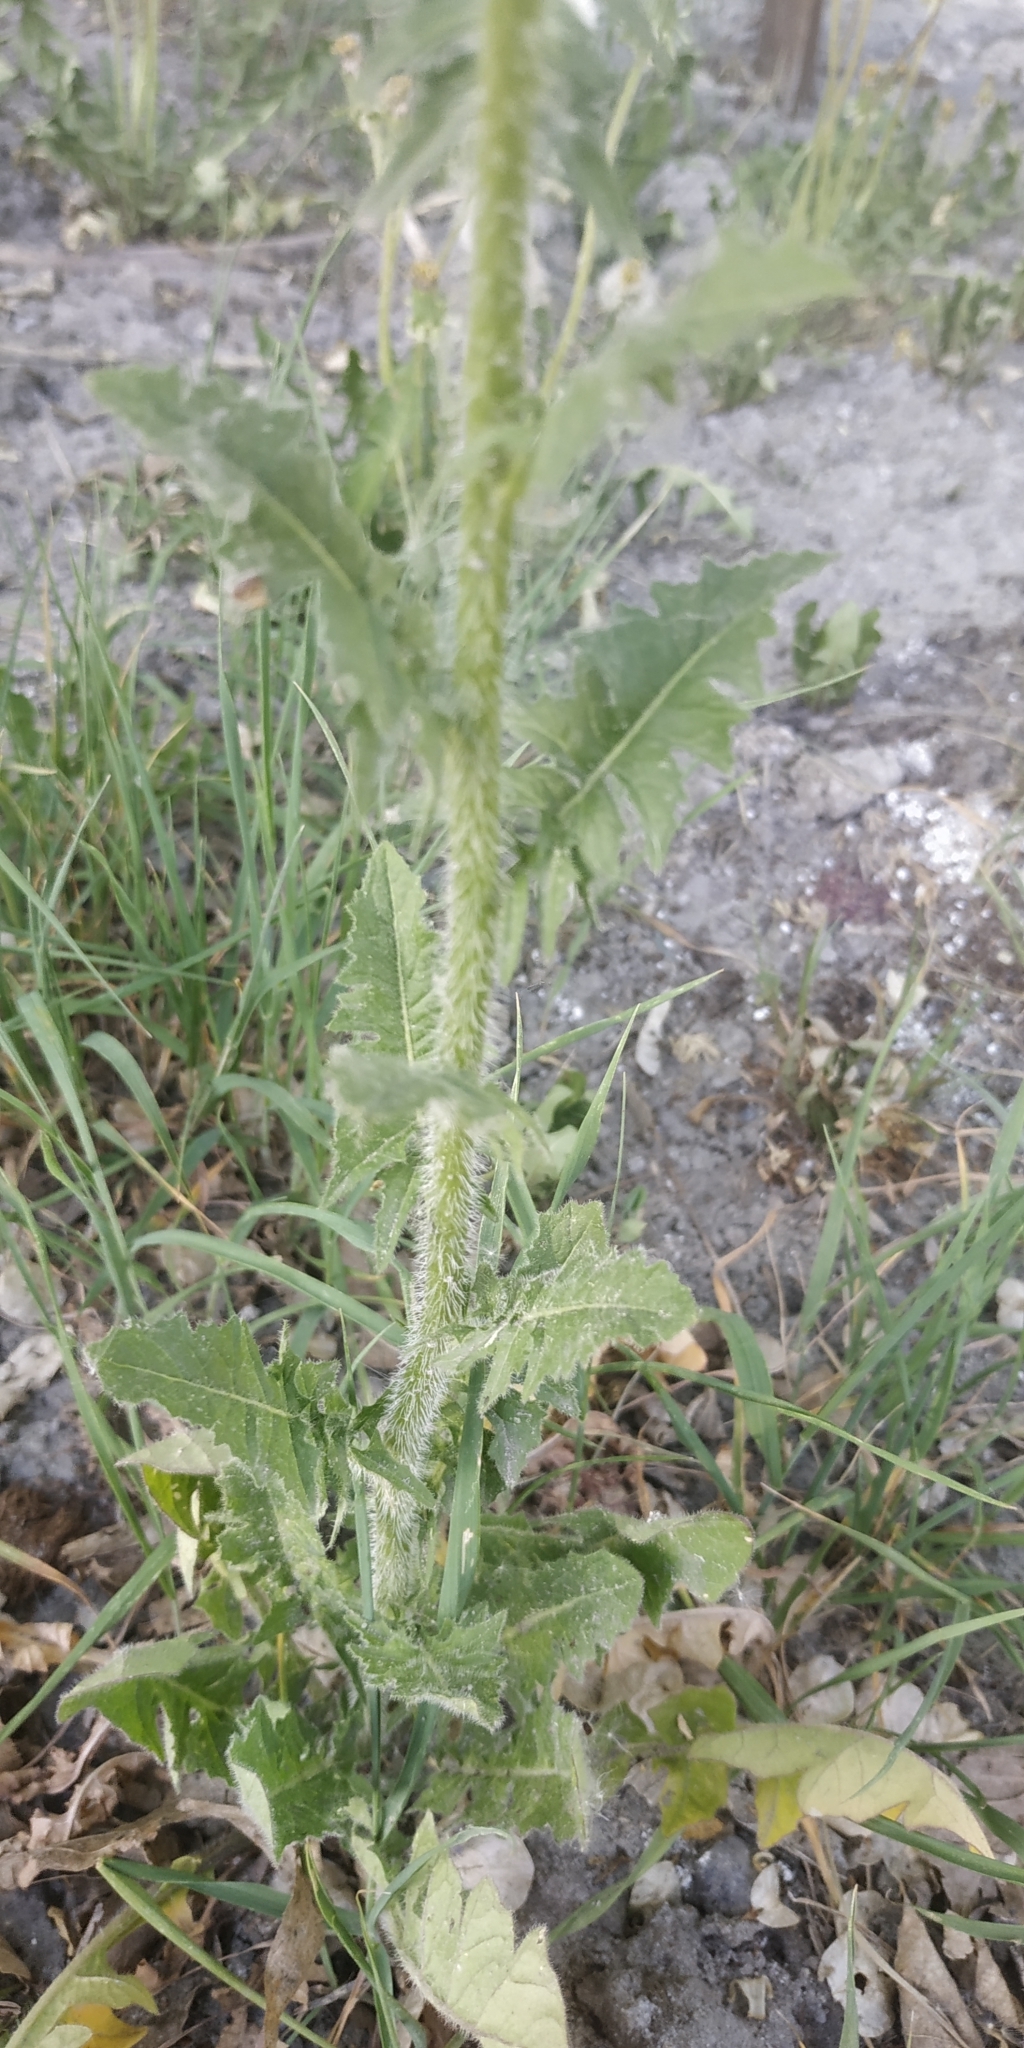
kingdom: Plantae
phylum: Tracheophyta
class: Magnoliopsida
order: Brassicales
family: Brassicaceae
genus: Sisymbrium
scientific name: Sisymbrium loeselii
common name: False london-rocket
